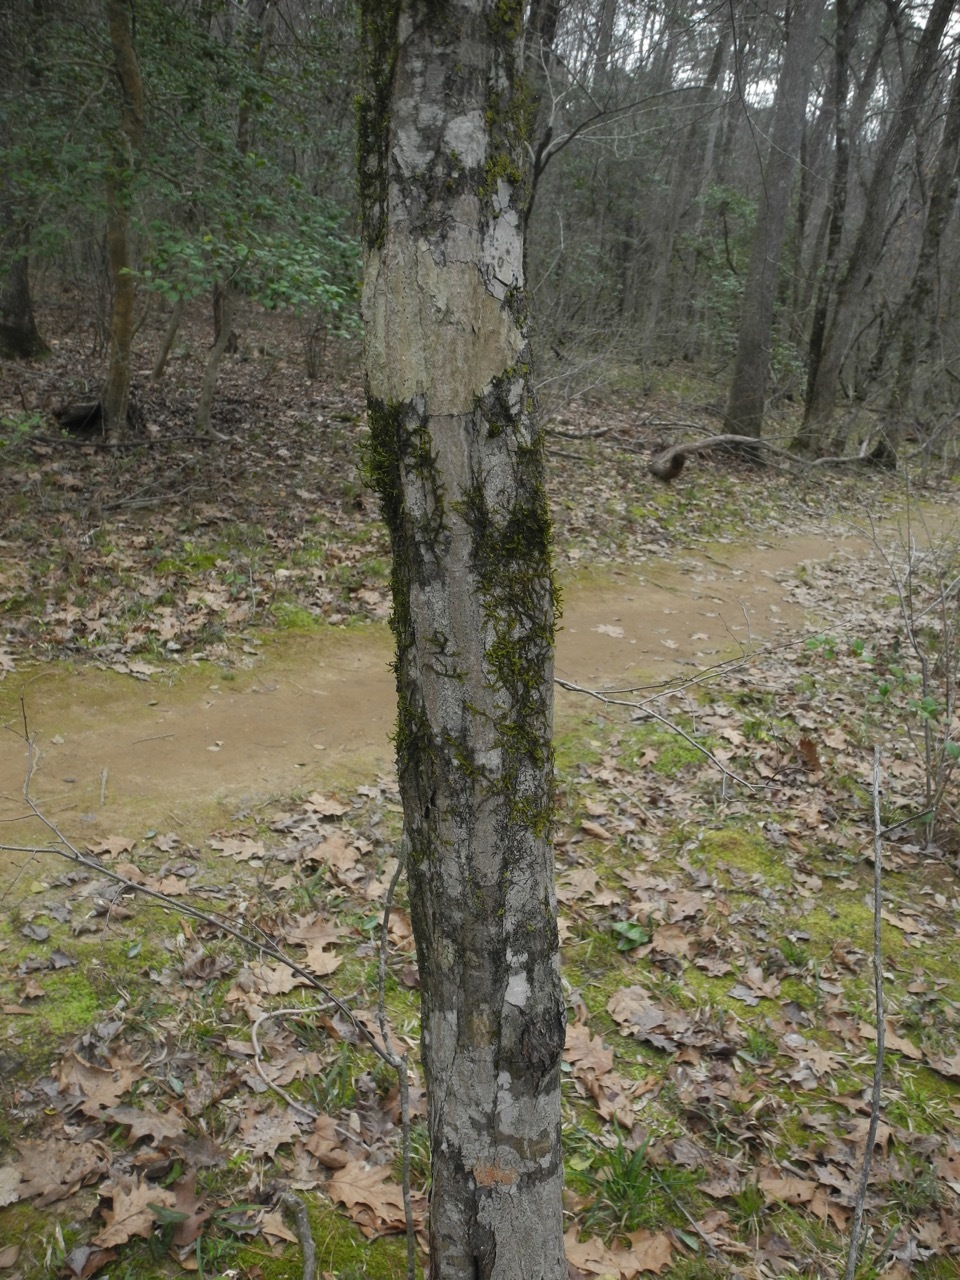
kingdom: Plantae
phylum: Tracheophyta
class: Magnoliopsida
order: Fagales
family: Betulaceae
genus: Carpinus
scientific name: Carpinus caroliniana
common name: American hornbeam
